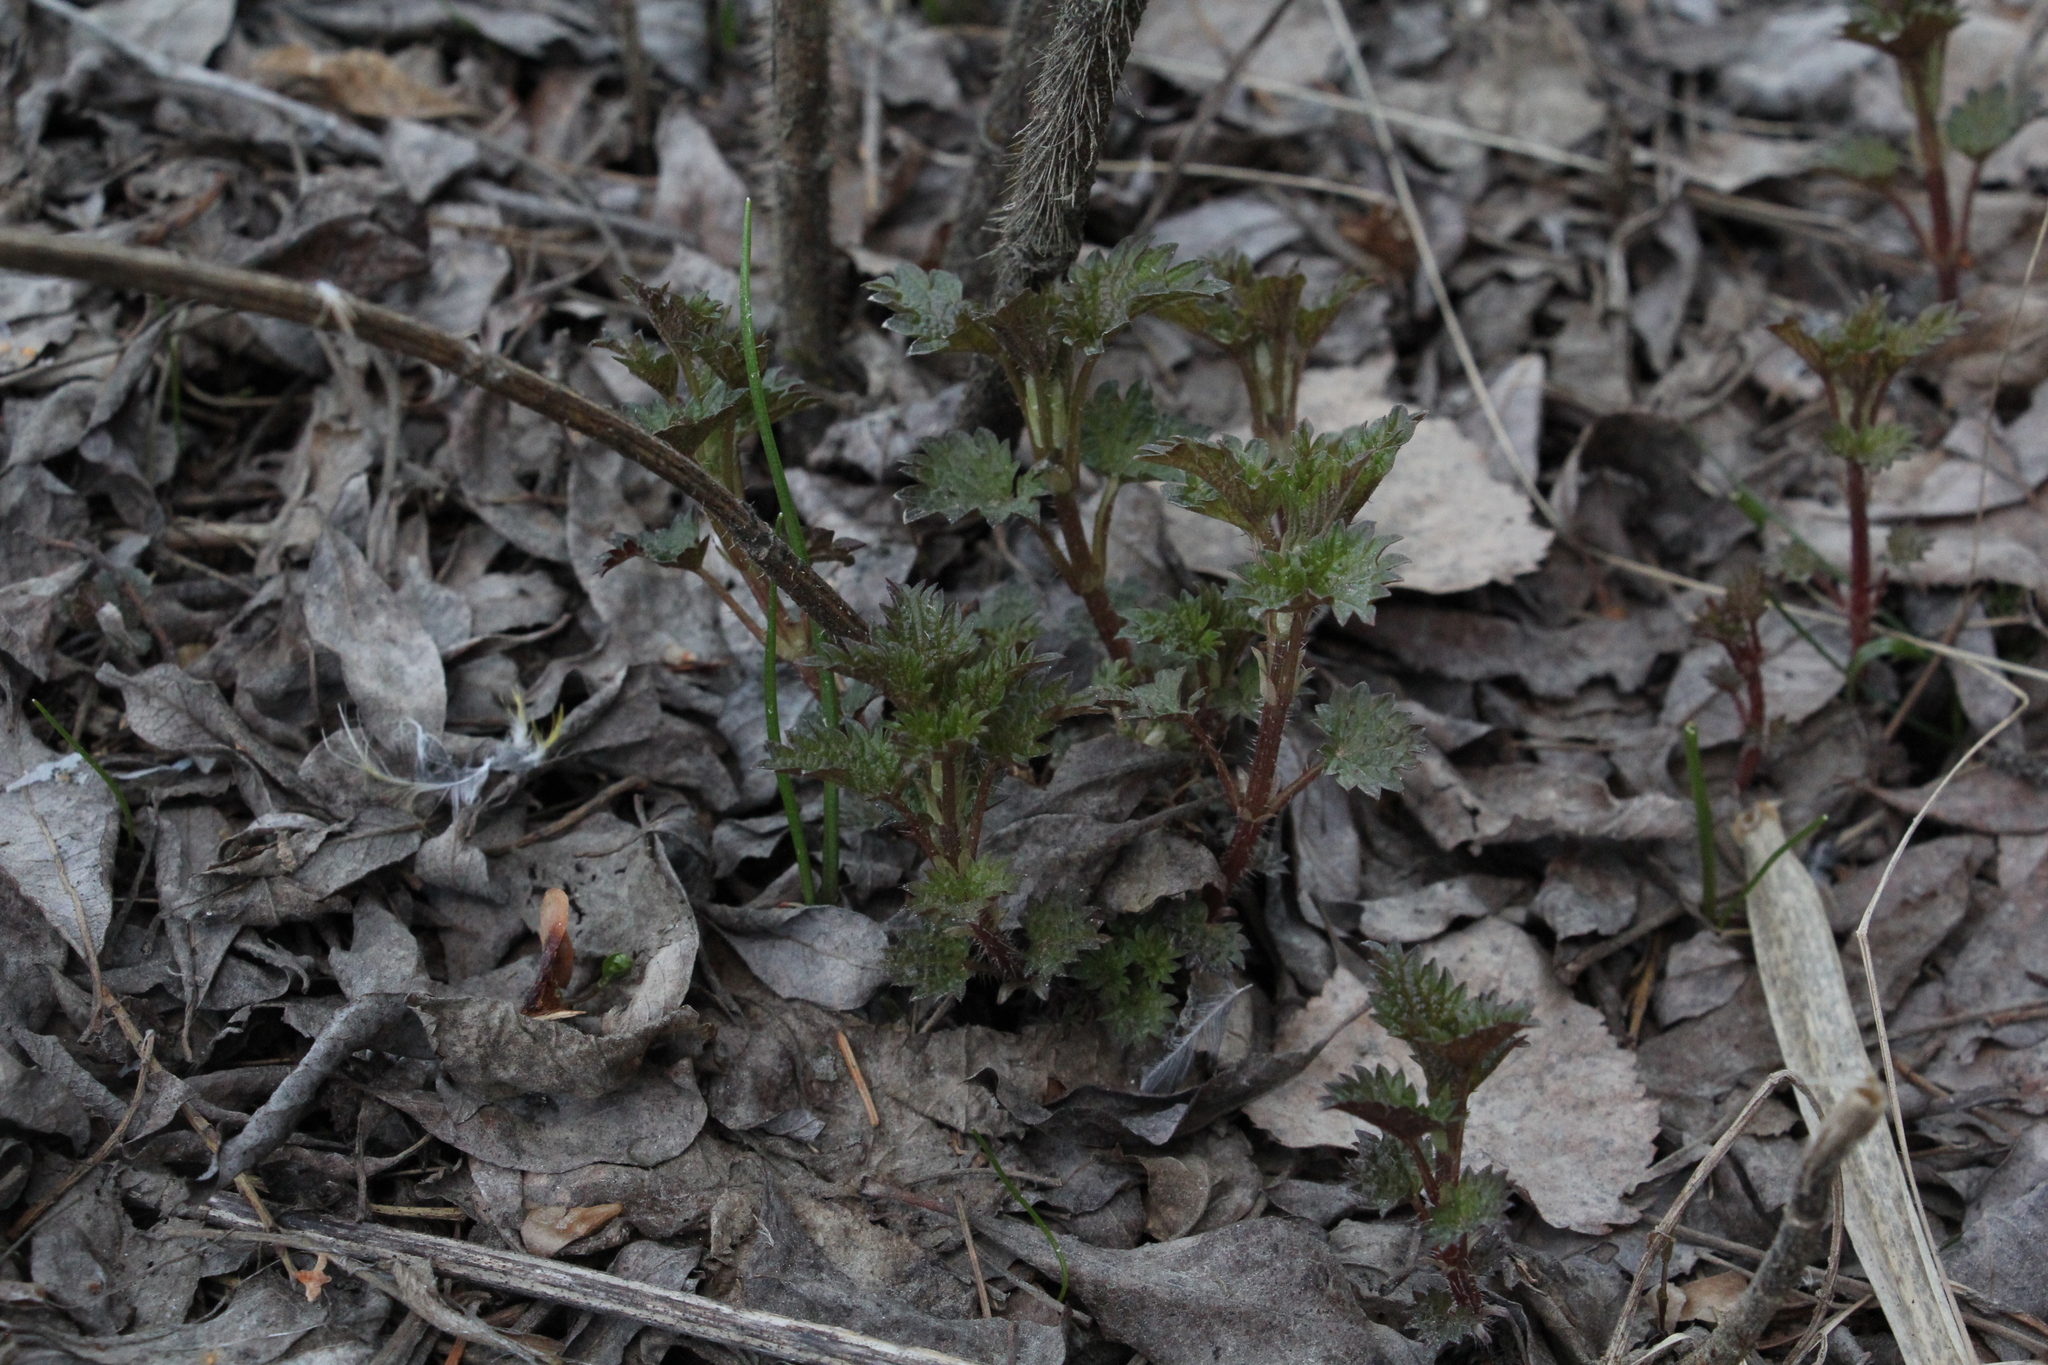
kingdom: Plantae
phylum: Tracheophyta
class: Magnoliopsida
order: Rosales
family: Urticaceae
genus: Urtica
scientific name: Urtica dioica
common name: Common nettle
